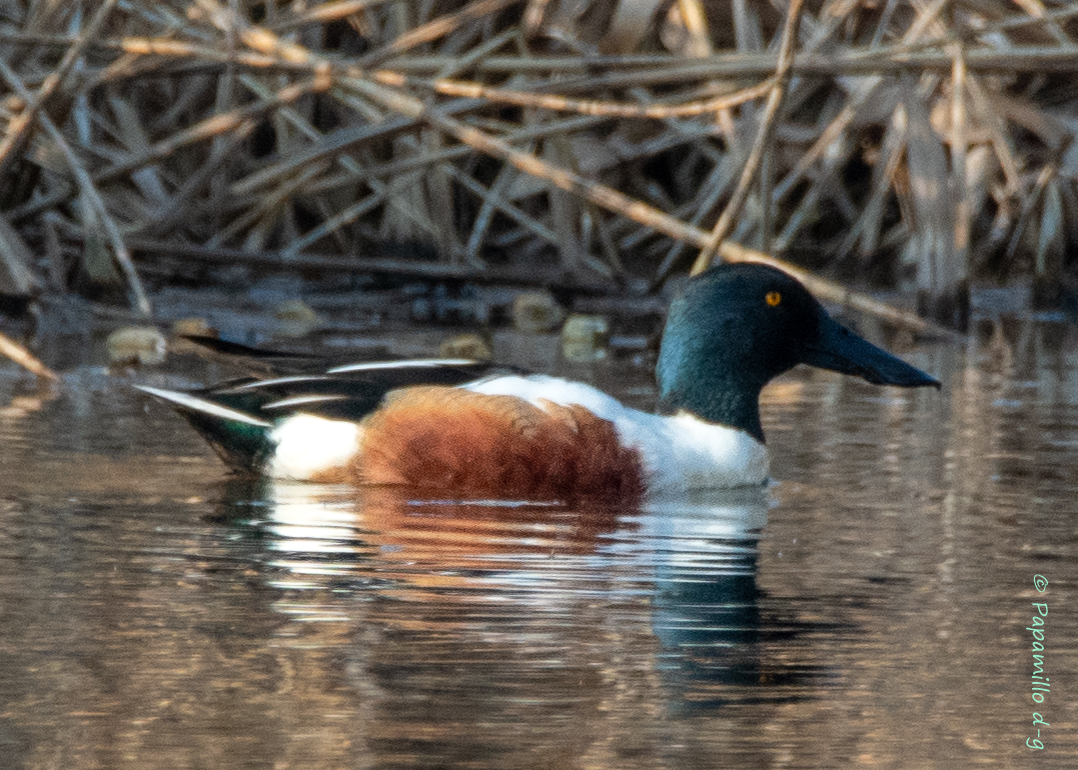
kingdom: Animalia
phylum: Chordata
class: Aves
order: Anseriformes
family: Anatidae
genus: Spatula
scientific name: Spatula clypeata
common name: Northern shoveler
